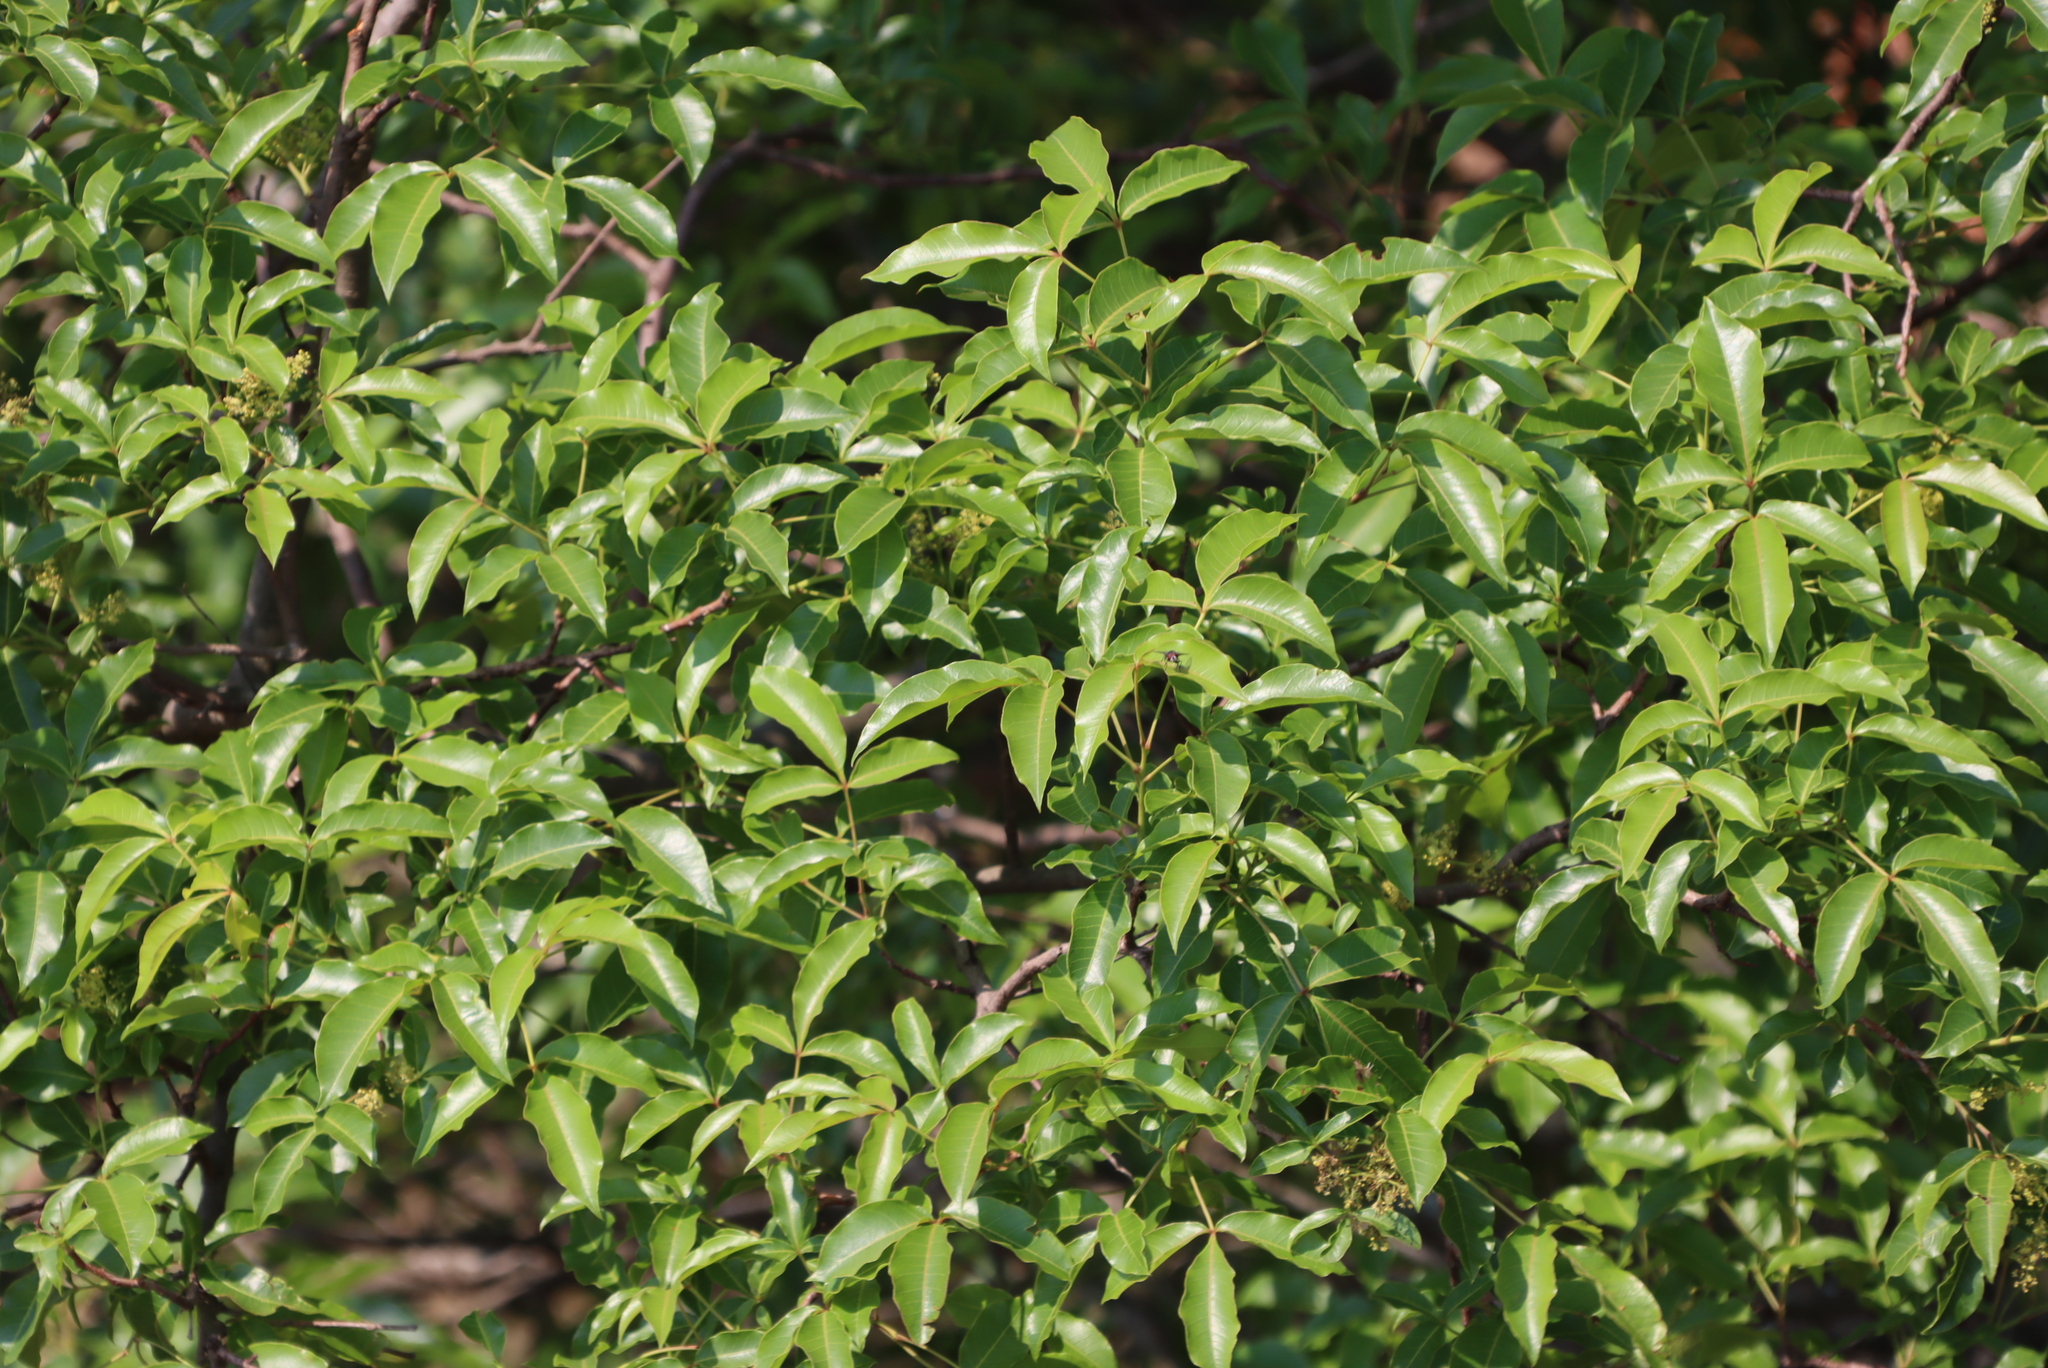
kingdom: Plantae
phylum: Tracheophyta
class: Magnoliopsida
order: Sapindales
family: Anacardiaceae
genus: Searsia
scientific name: Searsia chirindensis
